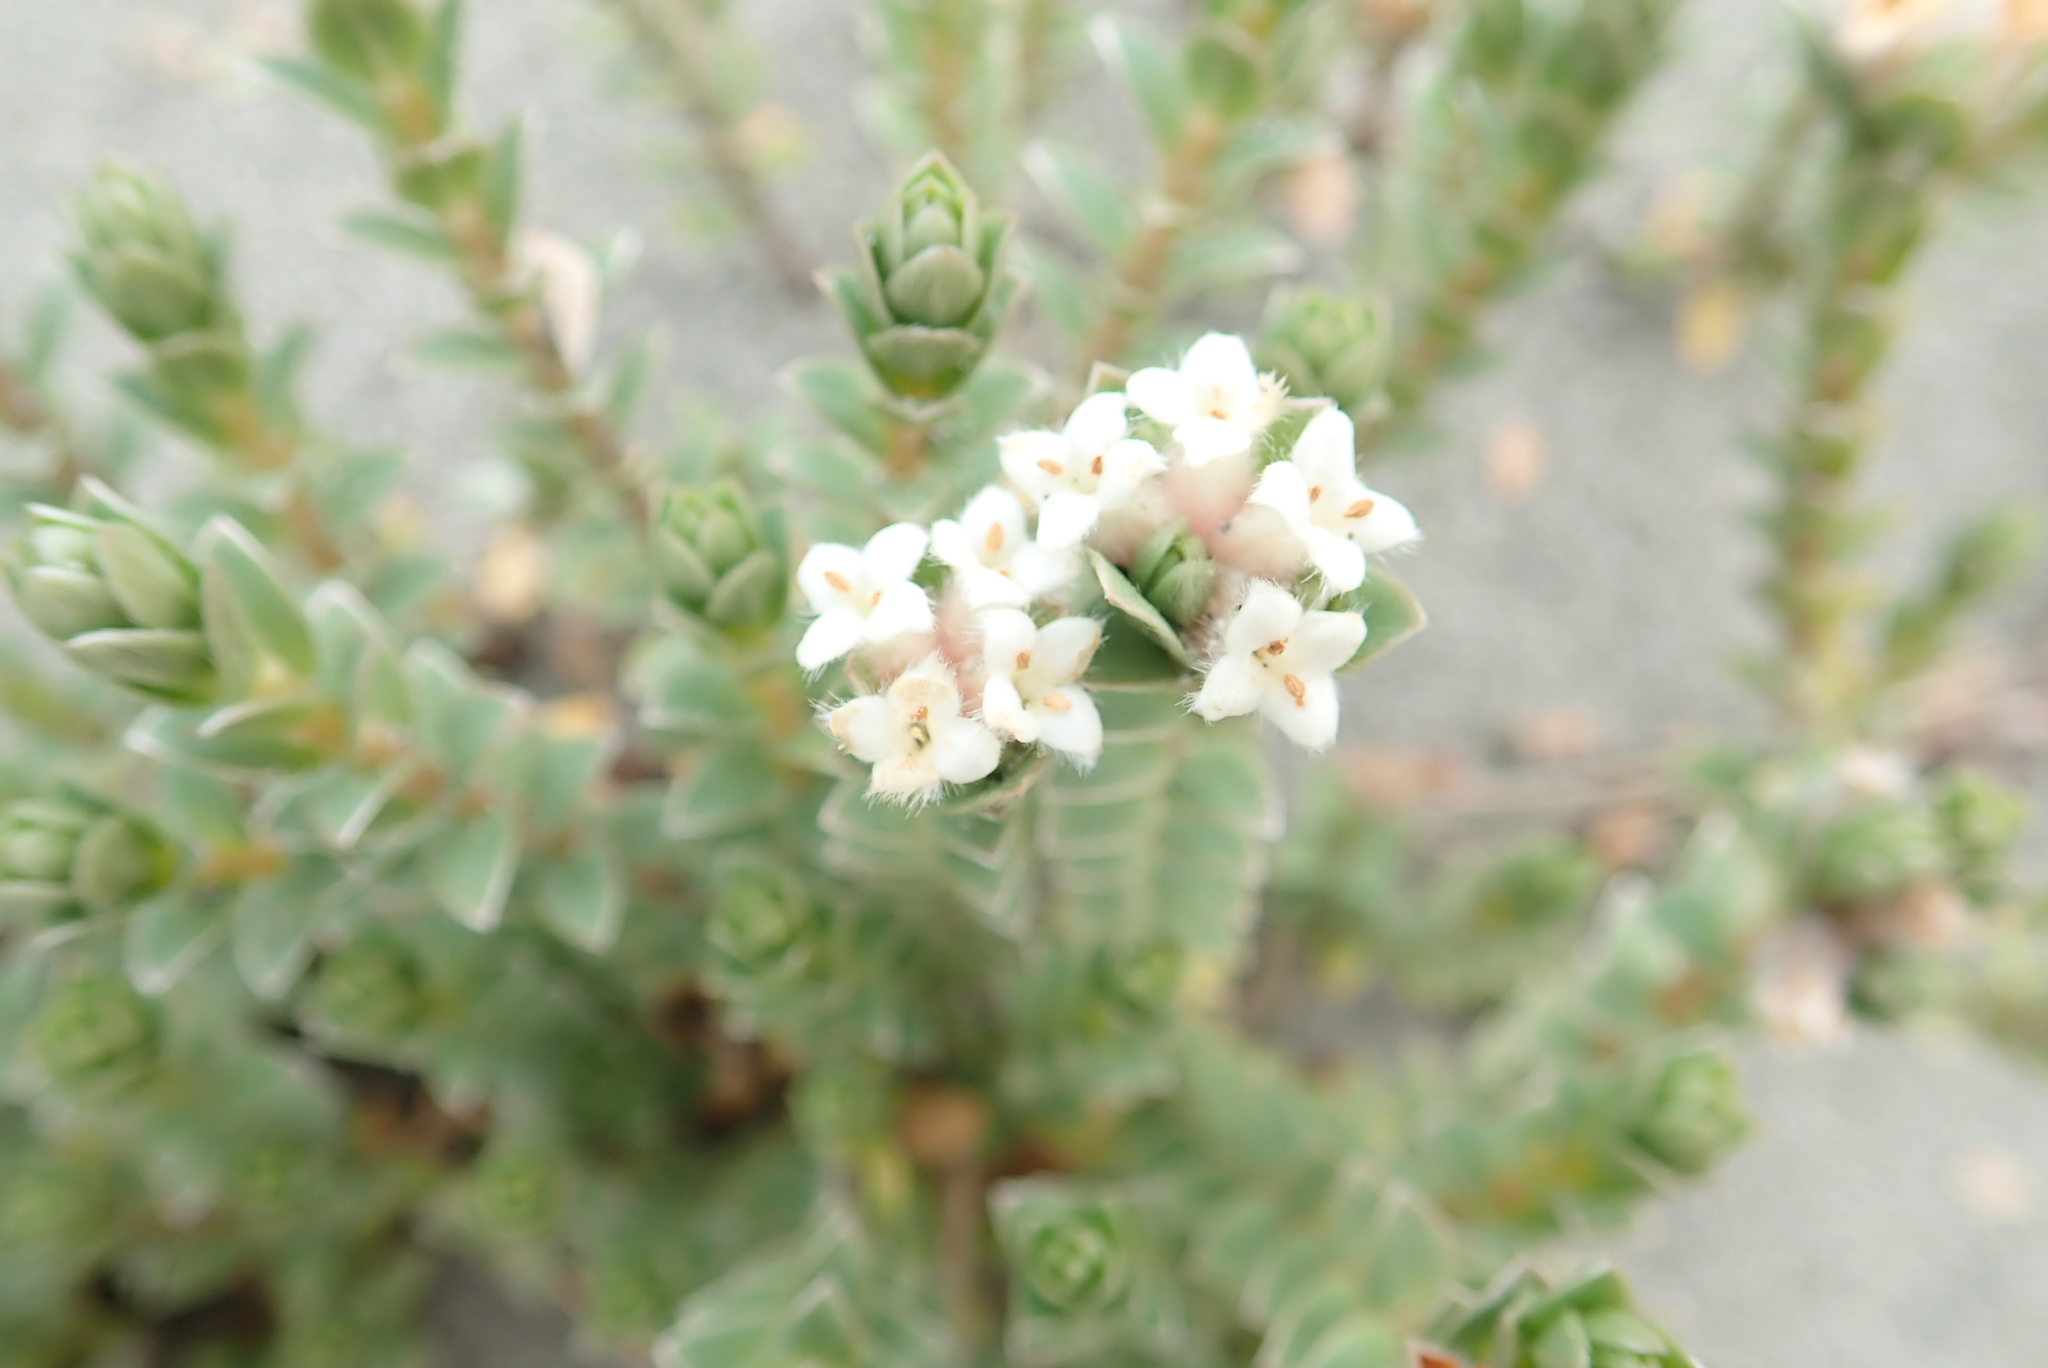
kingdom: Plantae
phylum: Tracheophyta
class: Magnoliopsida
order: Malvales
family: Thymelaeaceae
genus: Pimelea
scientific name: Pimelea villosa
